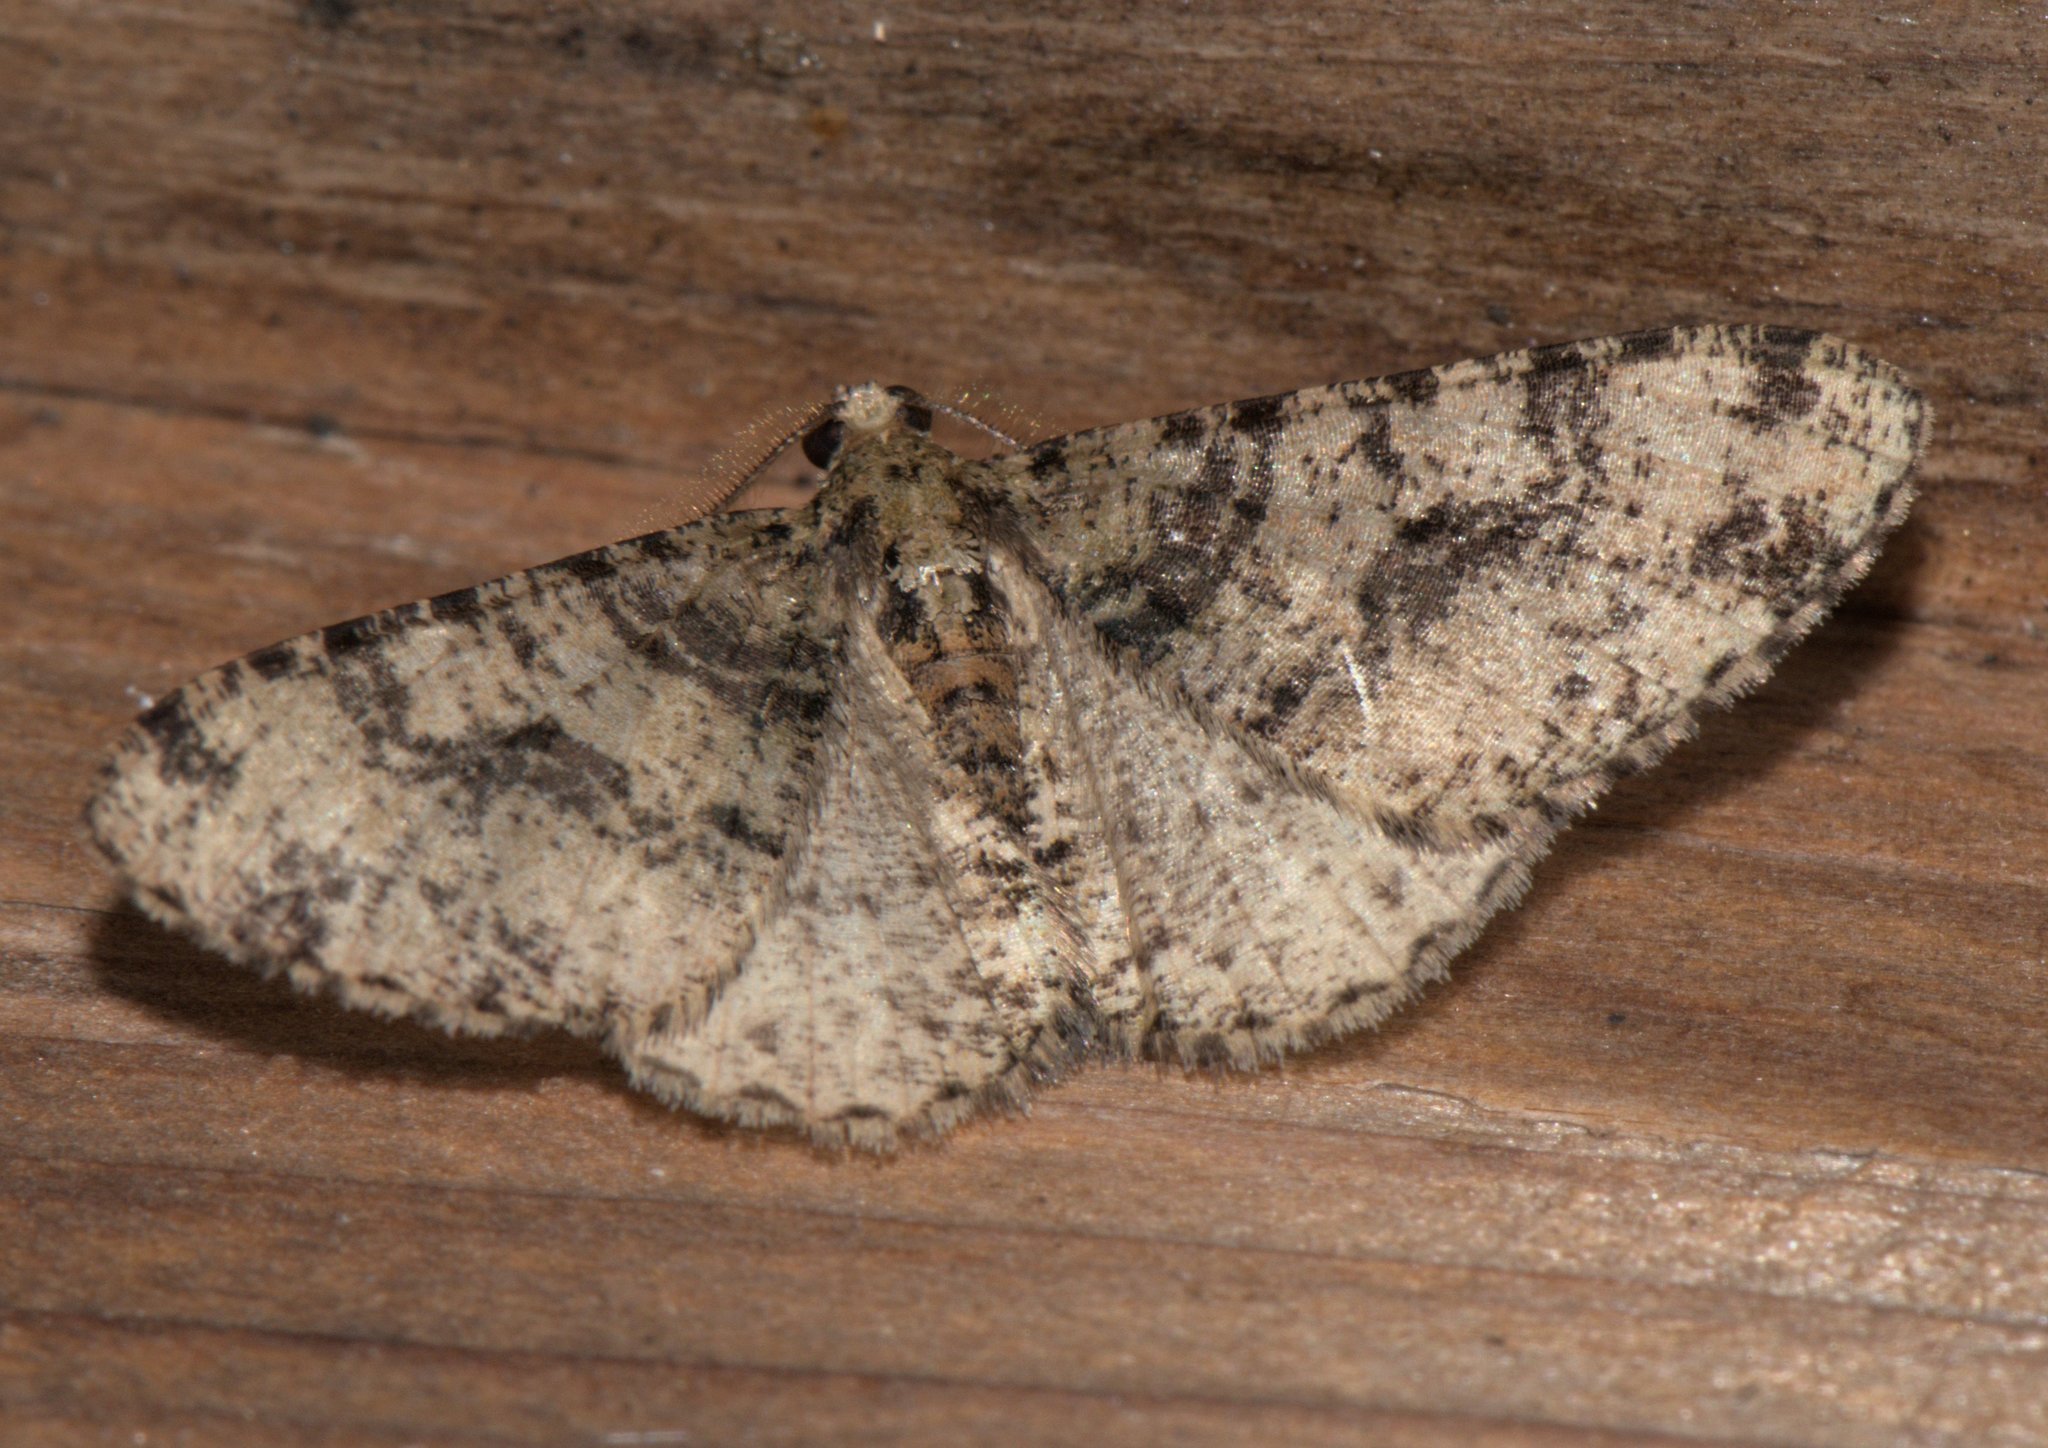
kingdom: Animalia
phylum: Arthropoda
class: Insecta
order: Lepidoptera
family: Geometridae
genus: Myrioblephara
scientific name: Myrioblephara duplexa
